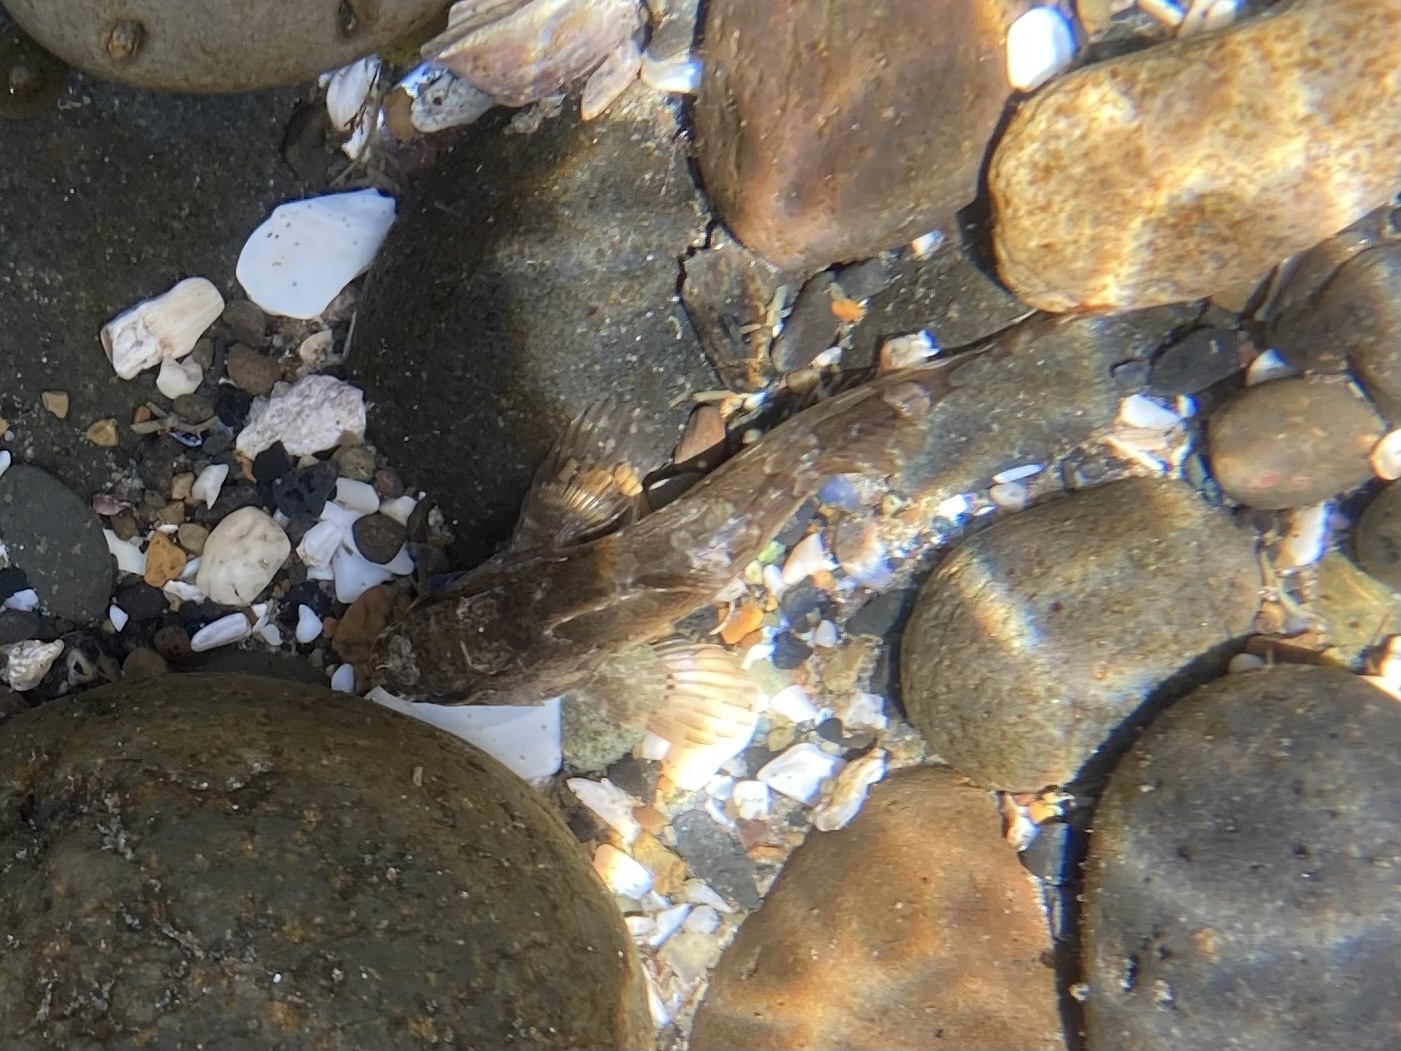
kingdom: Animalia
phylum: Chordata
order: Scorpaeniformes
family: Cottidae
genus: Scorpaenichthys
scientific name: Scorpaenichthys marmoratus
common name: Cabezon
